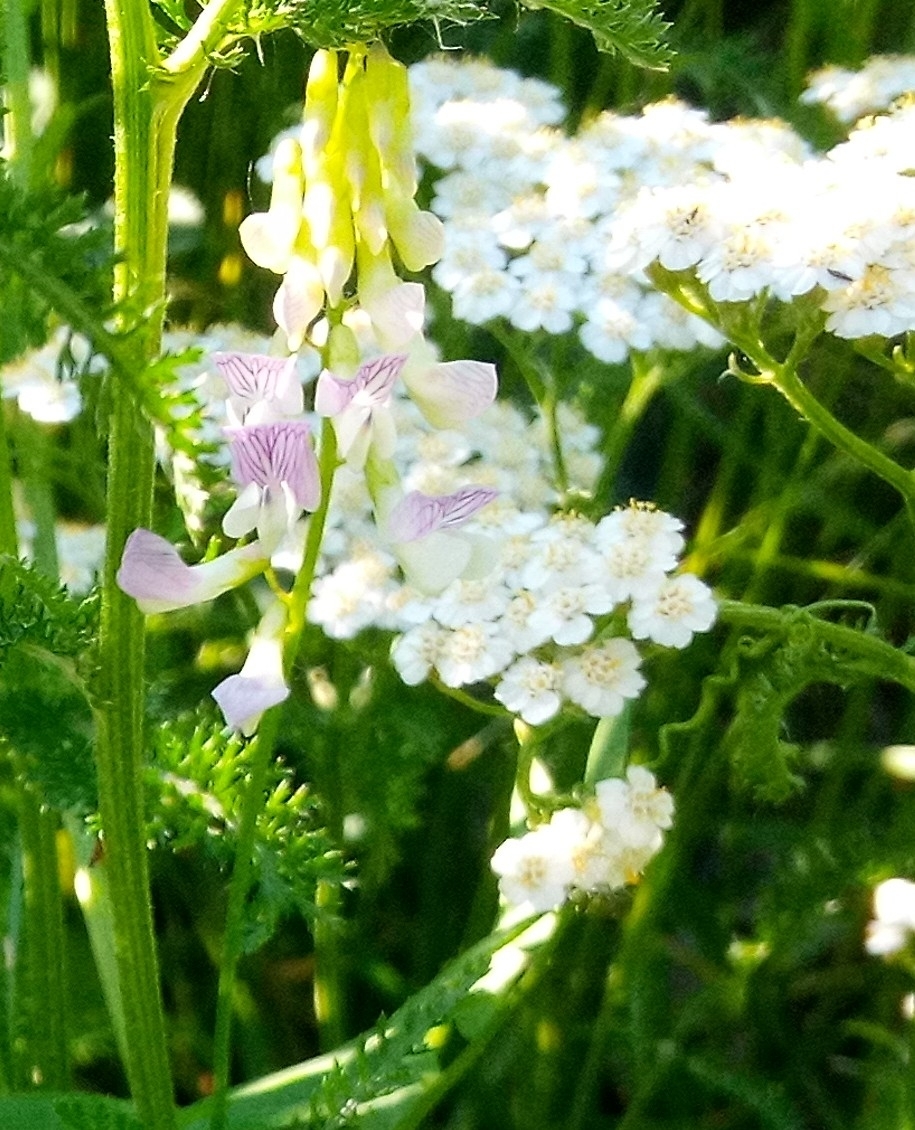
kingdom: Plantae
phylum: Tracheophyta
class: Magnoliopsida
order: Fabales
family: Fabaceae
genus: Vicia
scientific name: Vicia sylvatica
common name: Wood vetch
